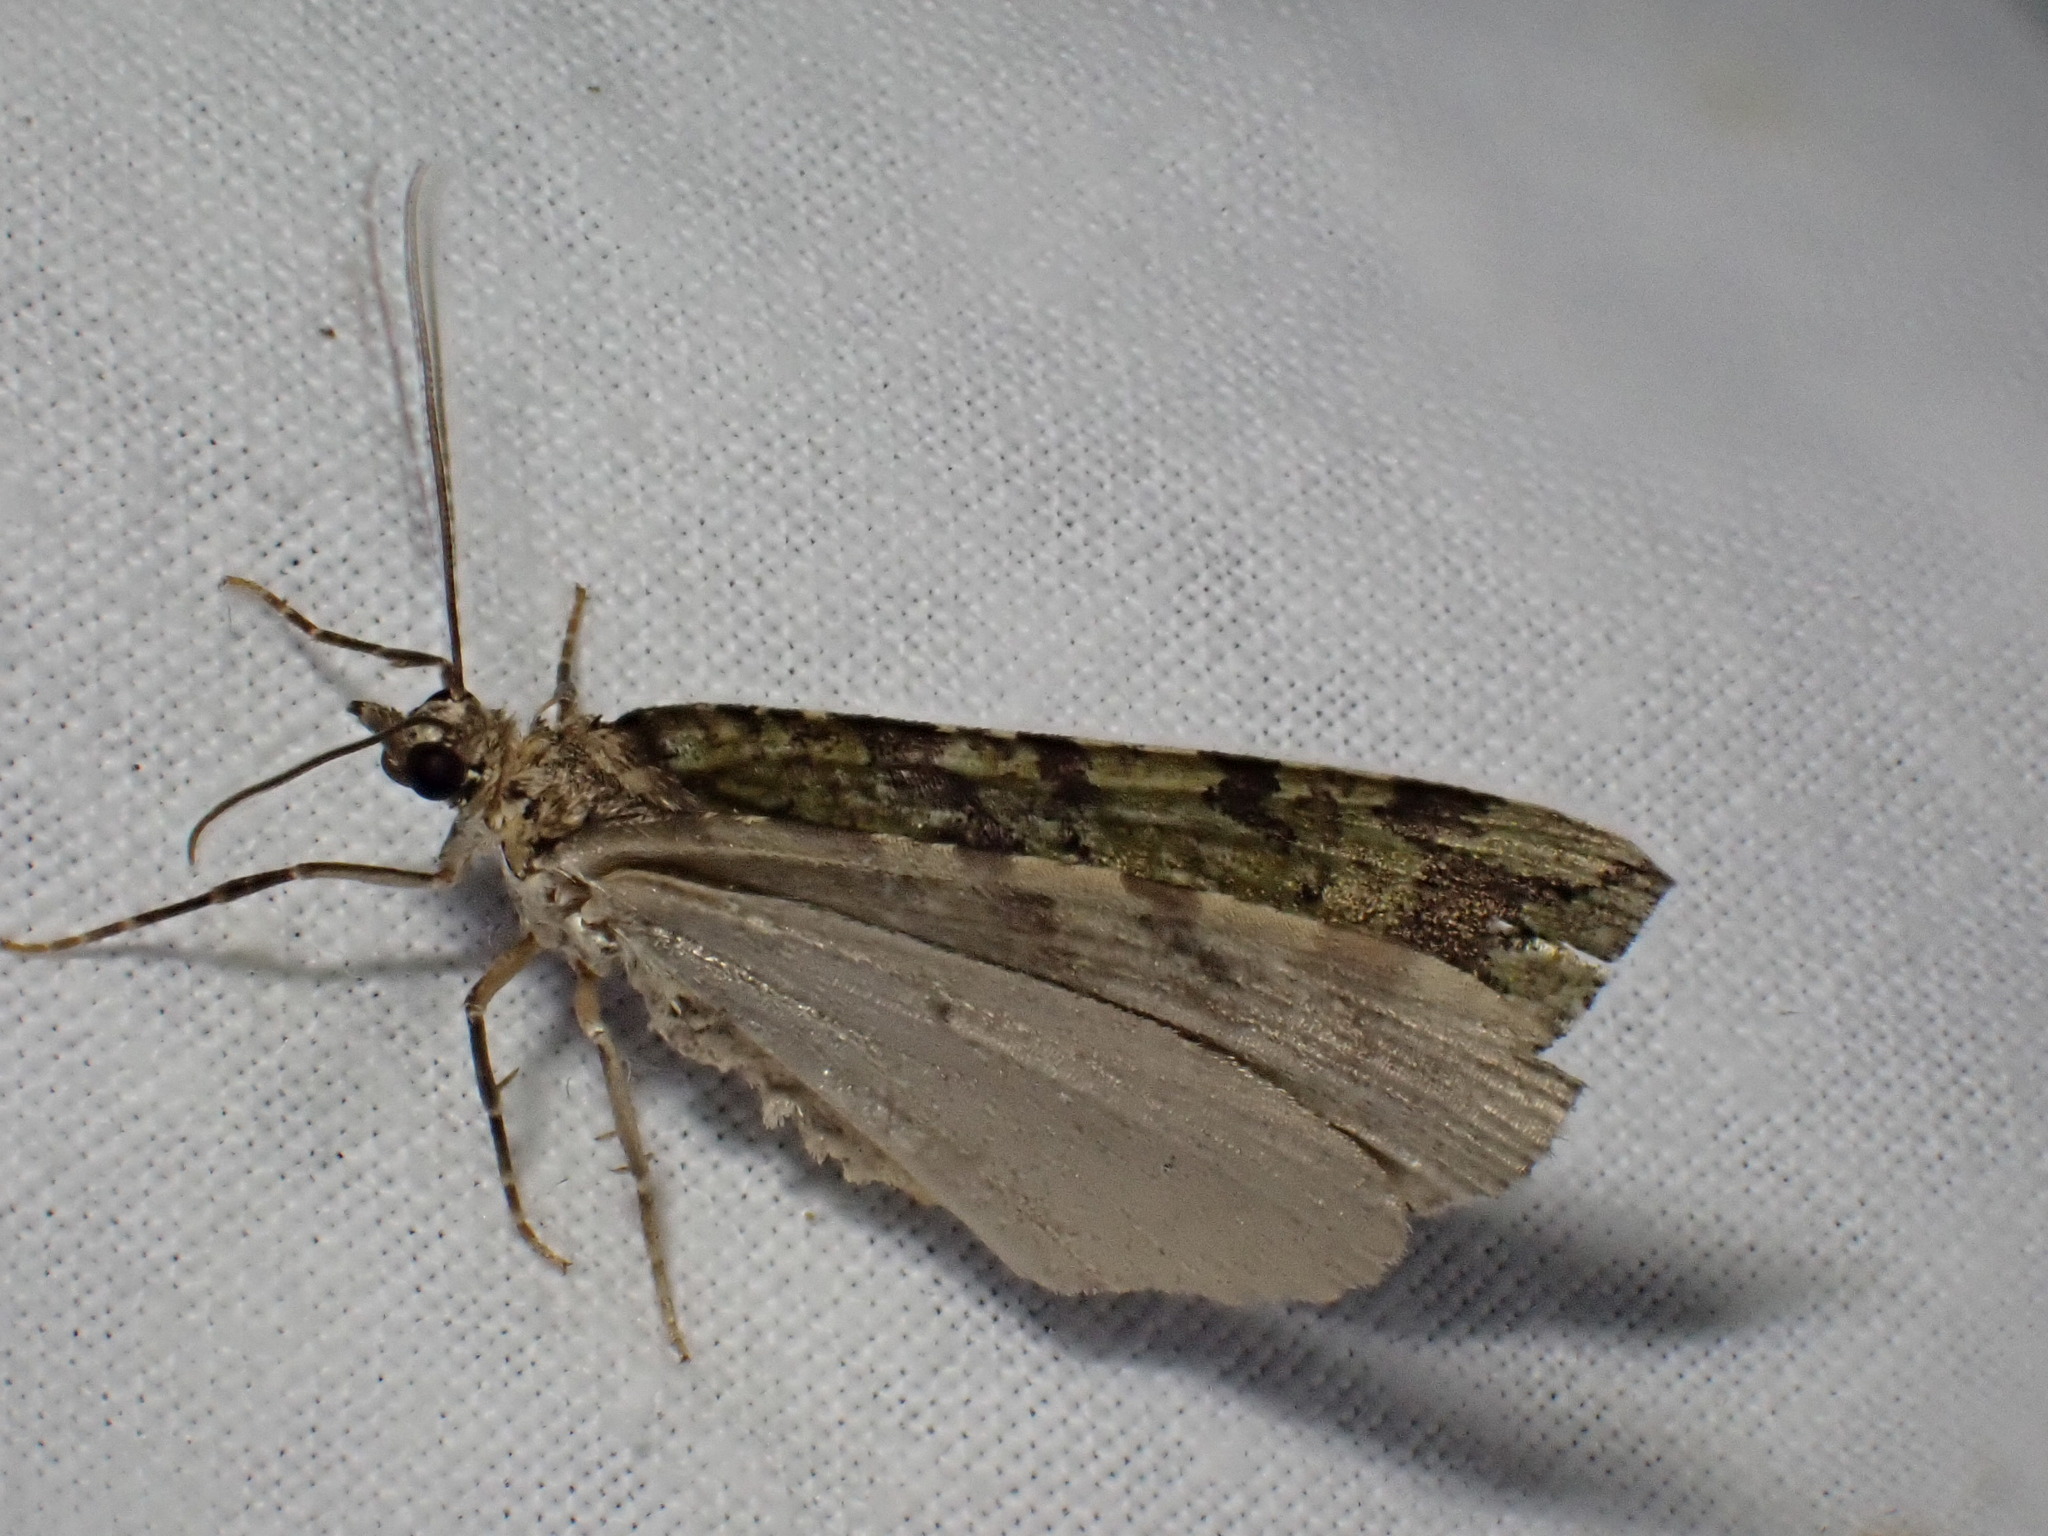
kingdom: Animalia
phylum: Arthropoda
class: Insecta
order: Lepidoptera
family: Geometridae
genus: Hydriomena
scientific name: Hydriomena furcata
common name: July highflyer
